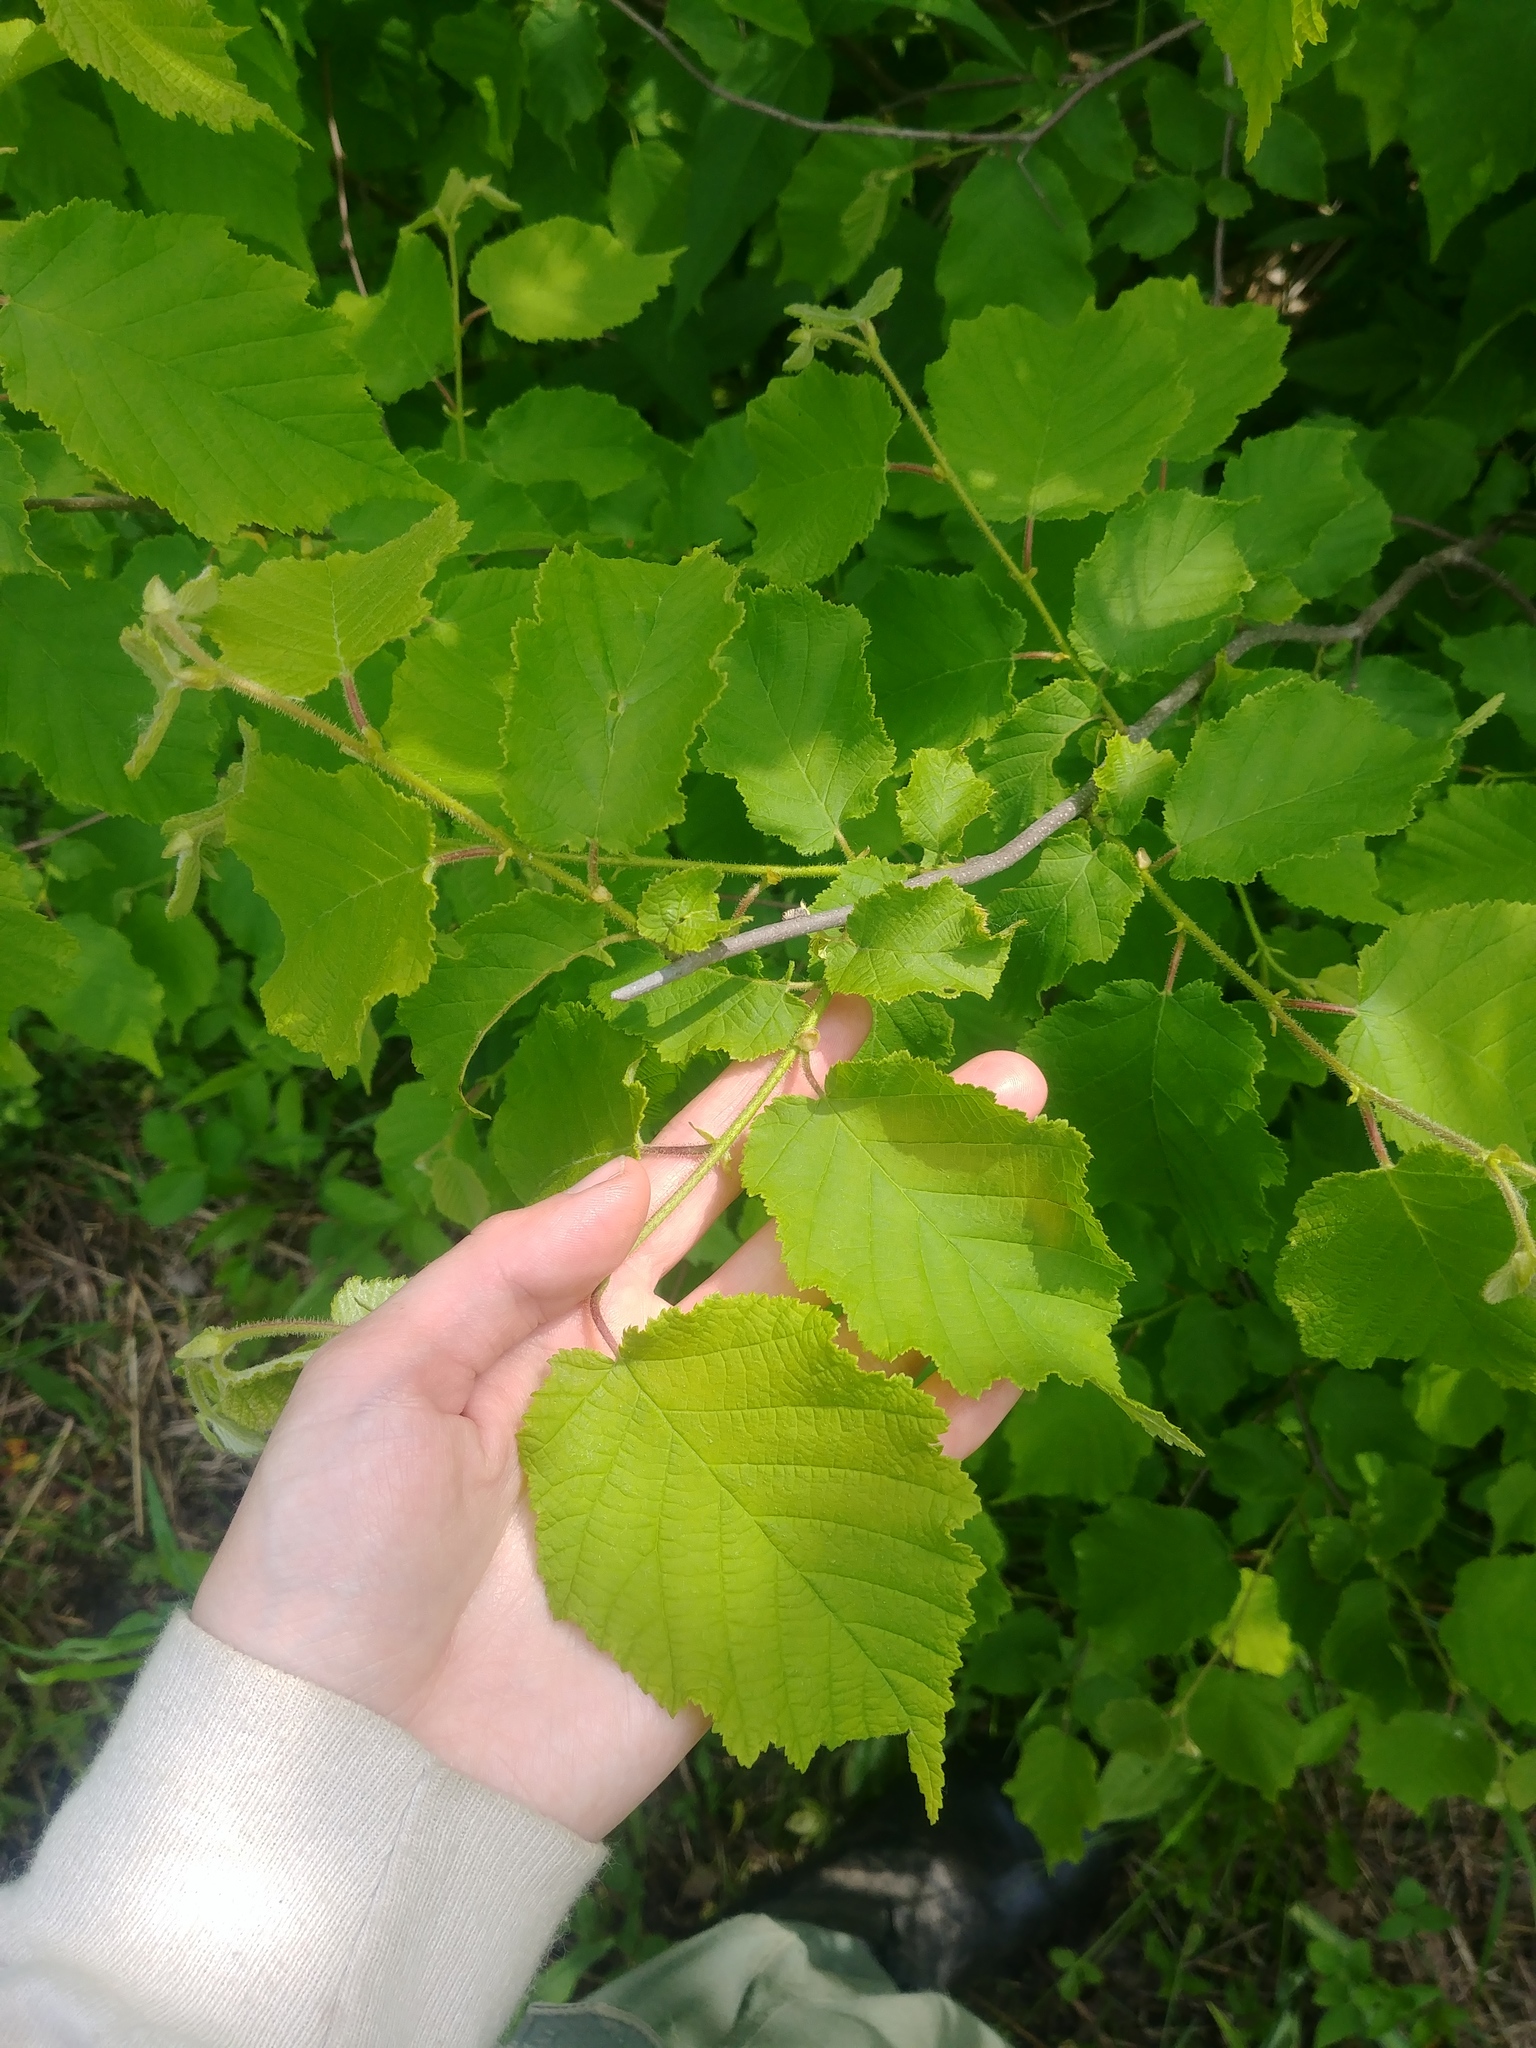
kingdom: Plantae
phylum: Tracheophyta
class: Magnoliopsida
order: Fagales
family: Betulaceae
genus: Corylus
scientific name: Corylus americana
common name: American hazel
